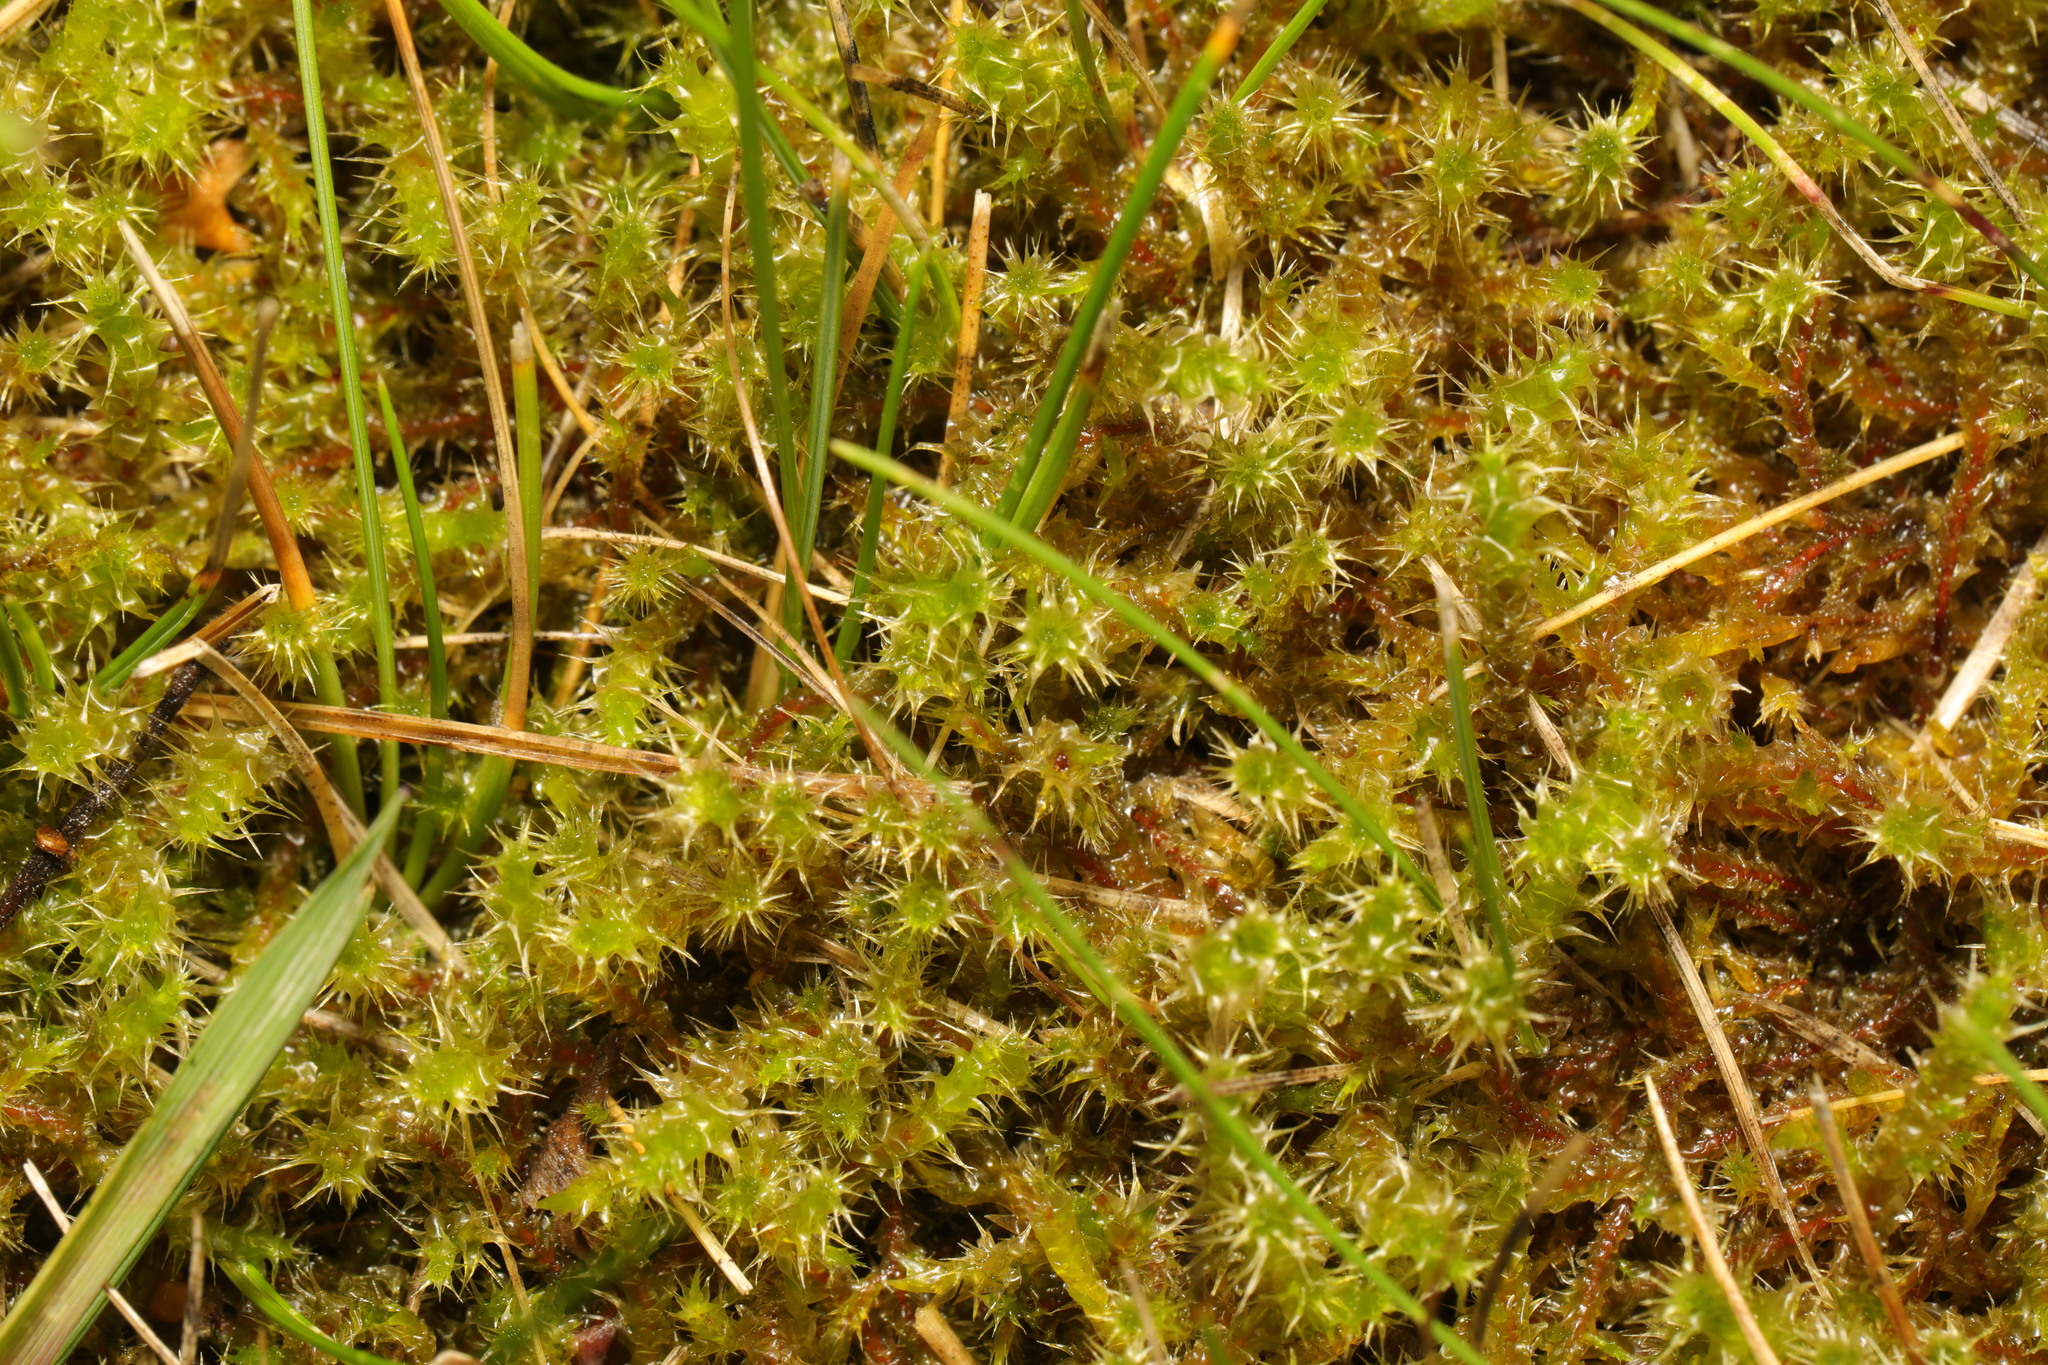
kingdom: Plantae
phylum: Bryophyta
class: Bryopsida
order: Hypnales
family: Hylocomiaceae
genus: Rhytidiadelphus
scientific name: Rhytidiadelphus squarrosus
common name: Springy turf-moss
